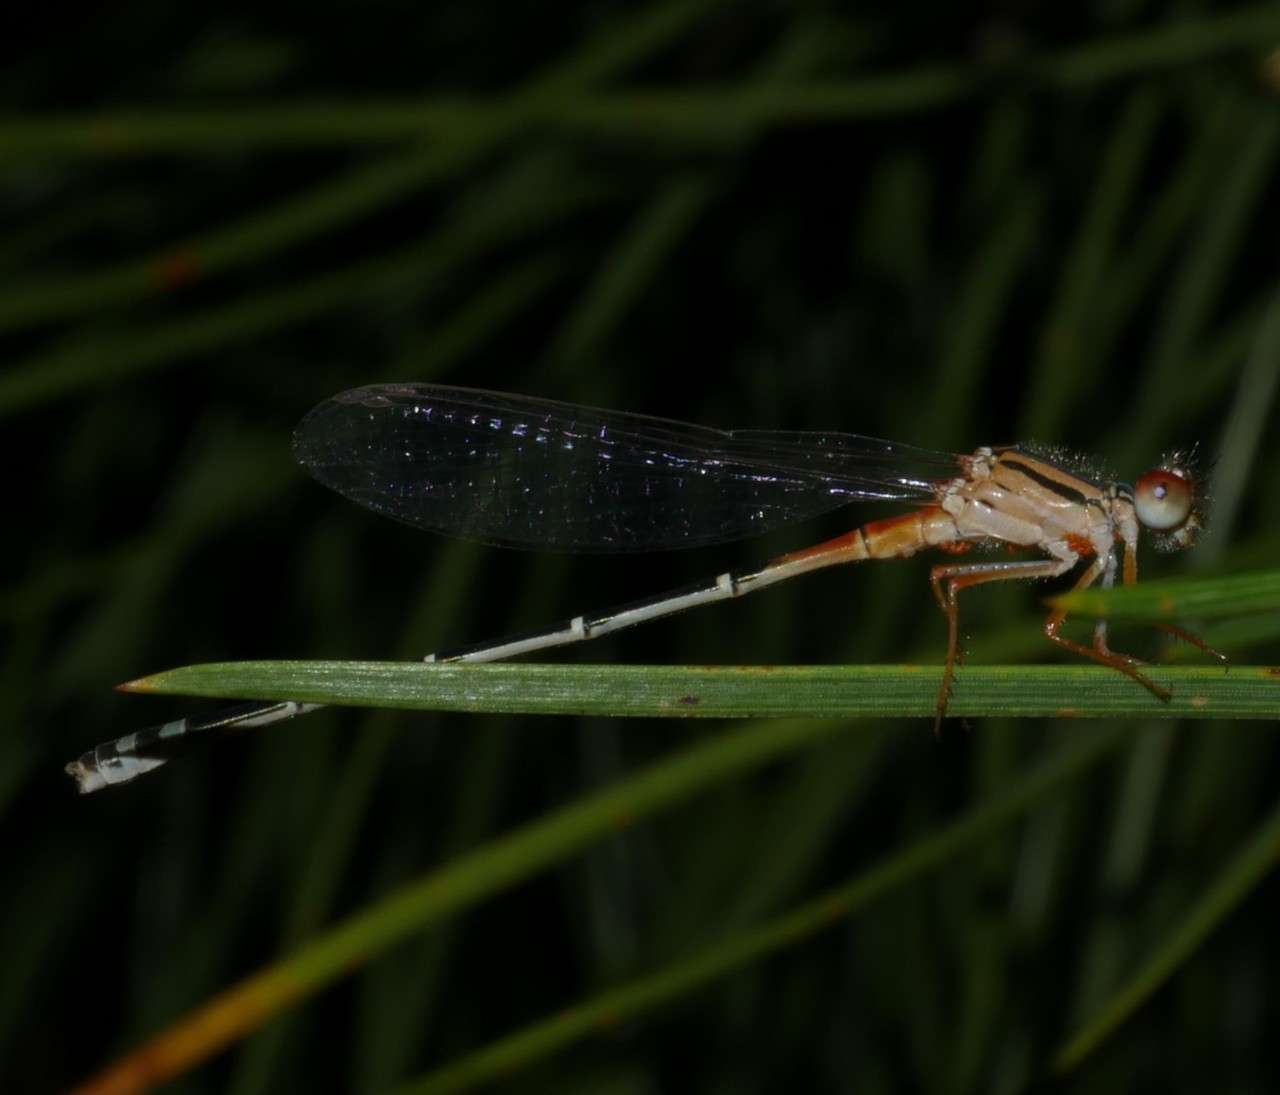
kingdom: Animalia
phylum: Arthropoda
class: Insecta
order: Odonata
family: Coenagrionidae
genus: Xanthagrion
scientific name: Xanthagrion erythroneurum
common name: Red and blue damsel
